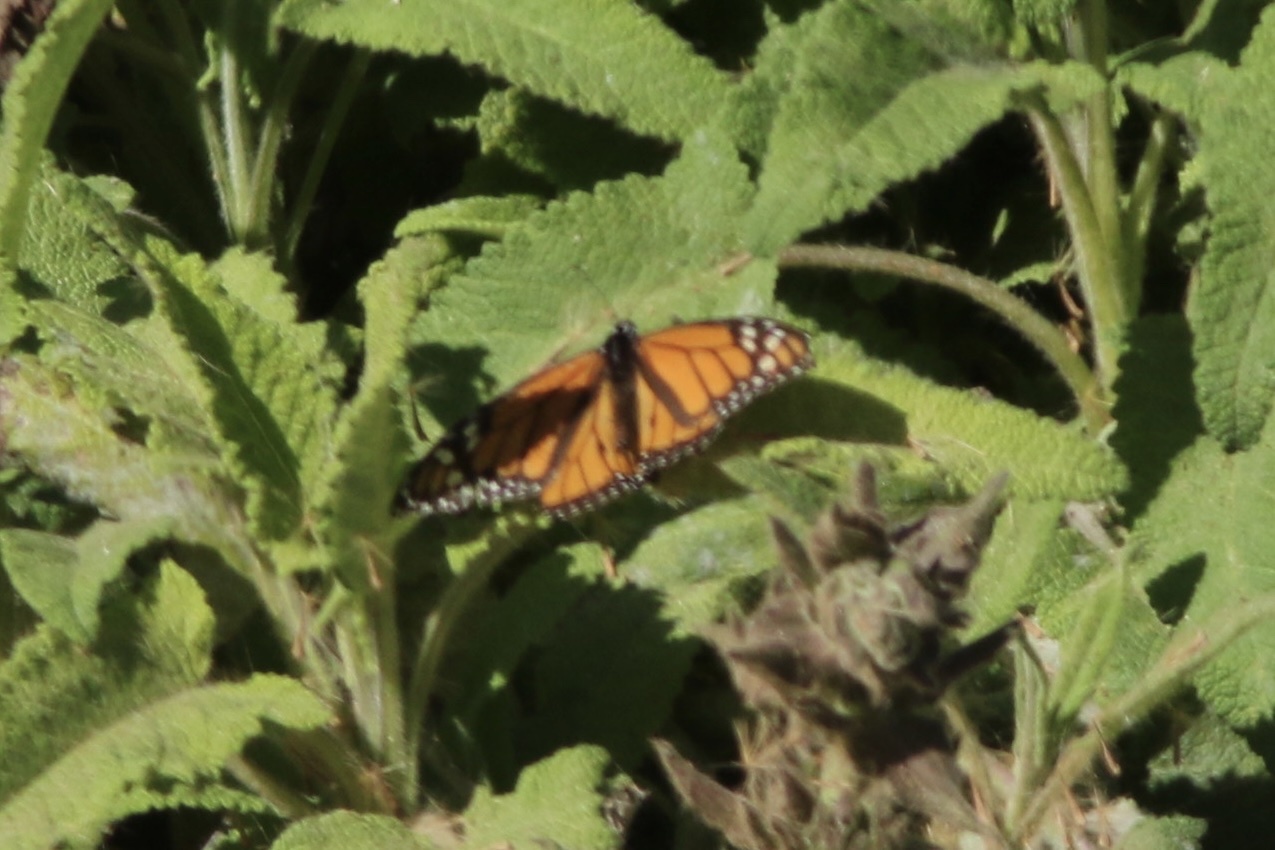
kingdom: Animalia
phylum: Arthropoda
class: Insecta
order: Lepidoptera
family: Nymphalidae
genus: Danaus
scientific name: Danaus plexippus
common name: Monarch
